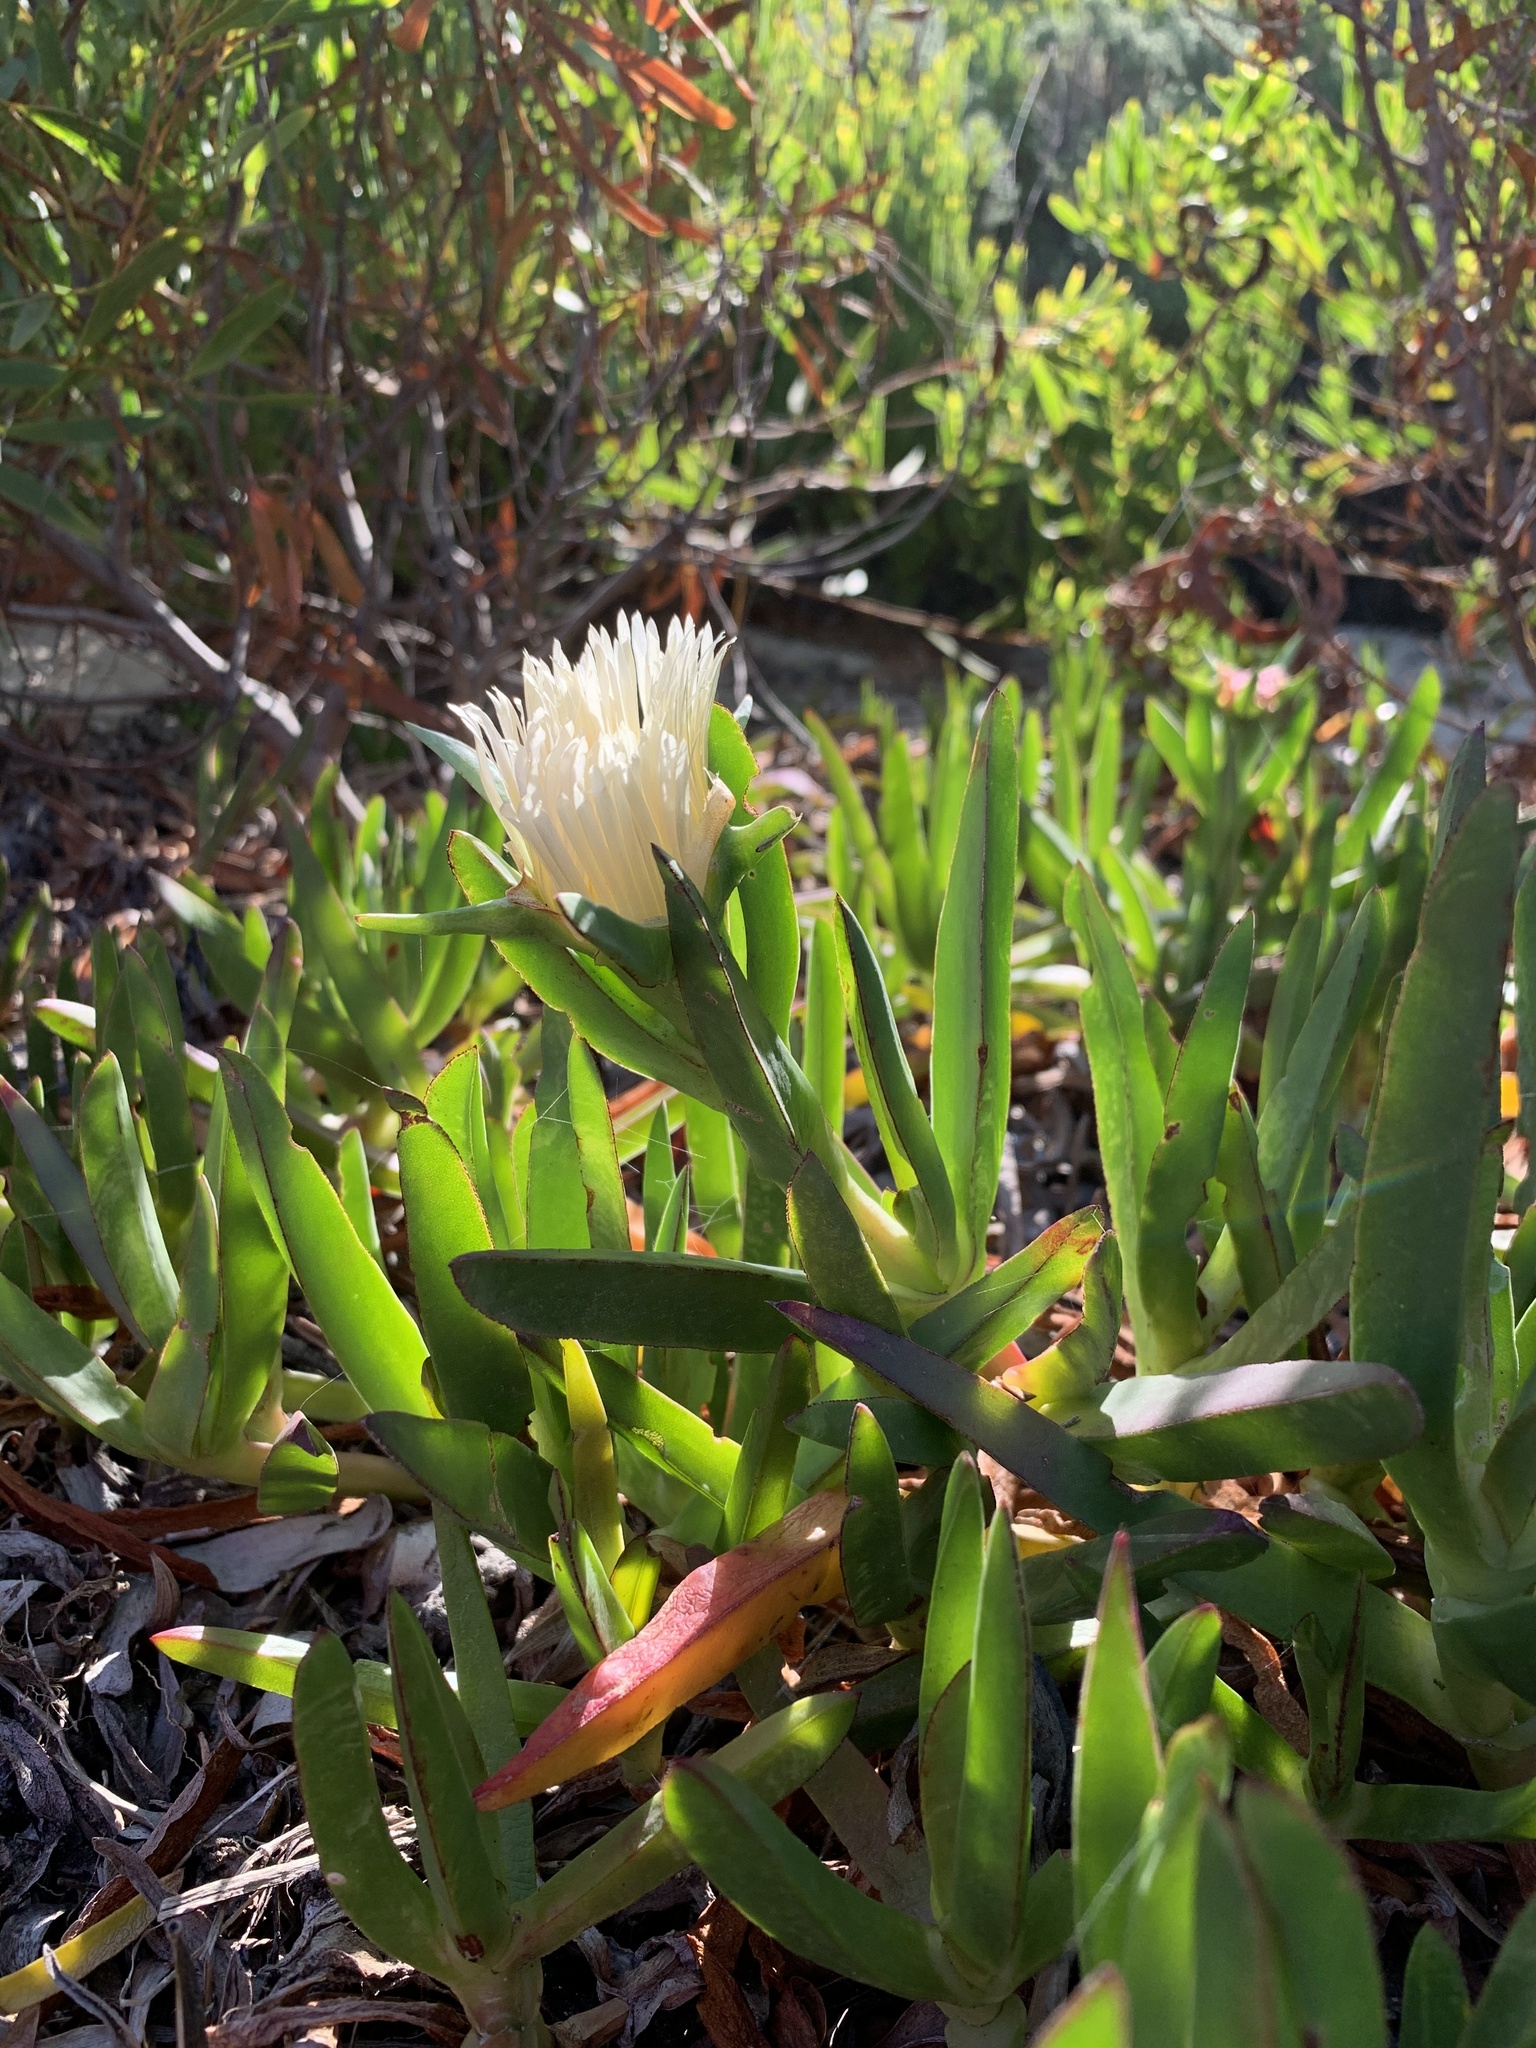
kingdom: Plantae
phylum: Tracheophyta
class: Magnoliopsida
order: Caryophyllales
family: Aizoaceae
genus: Carpobrotus
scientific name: Carpobrotus edulis
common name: Hottentot-fig
